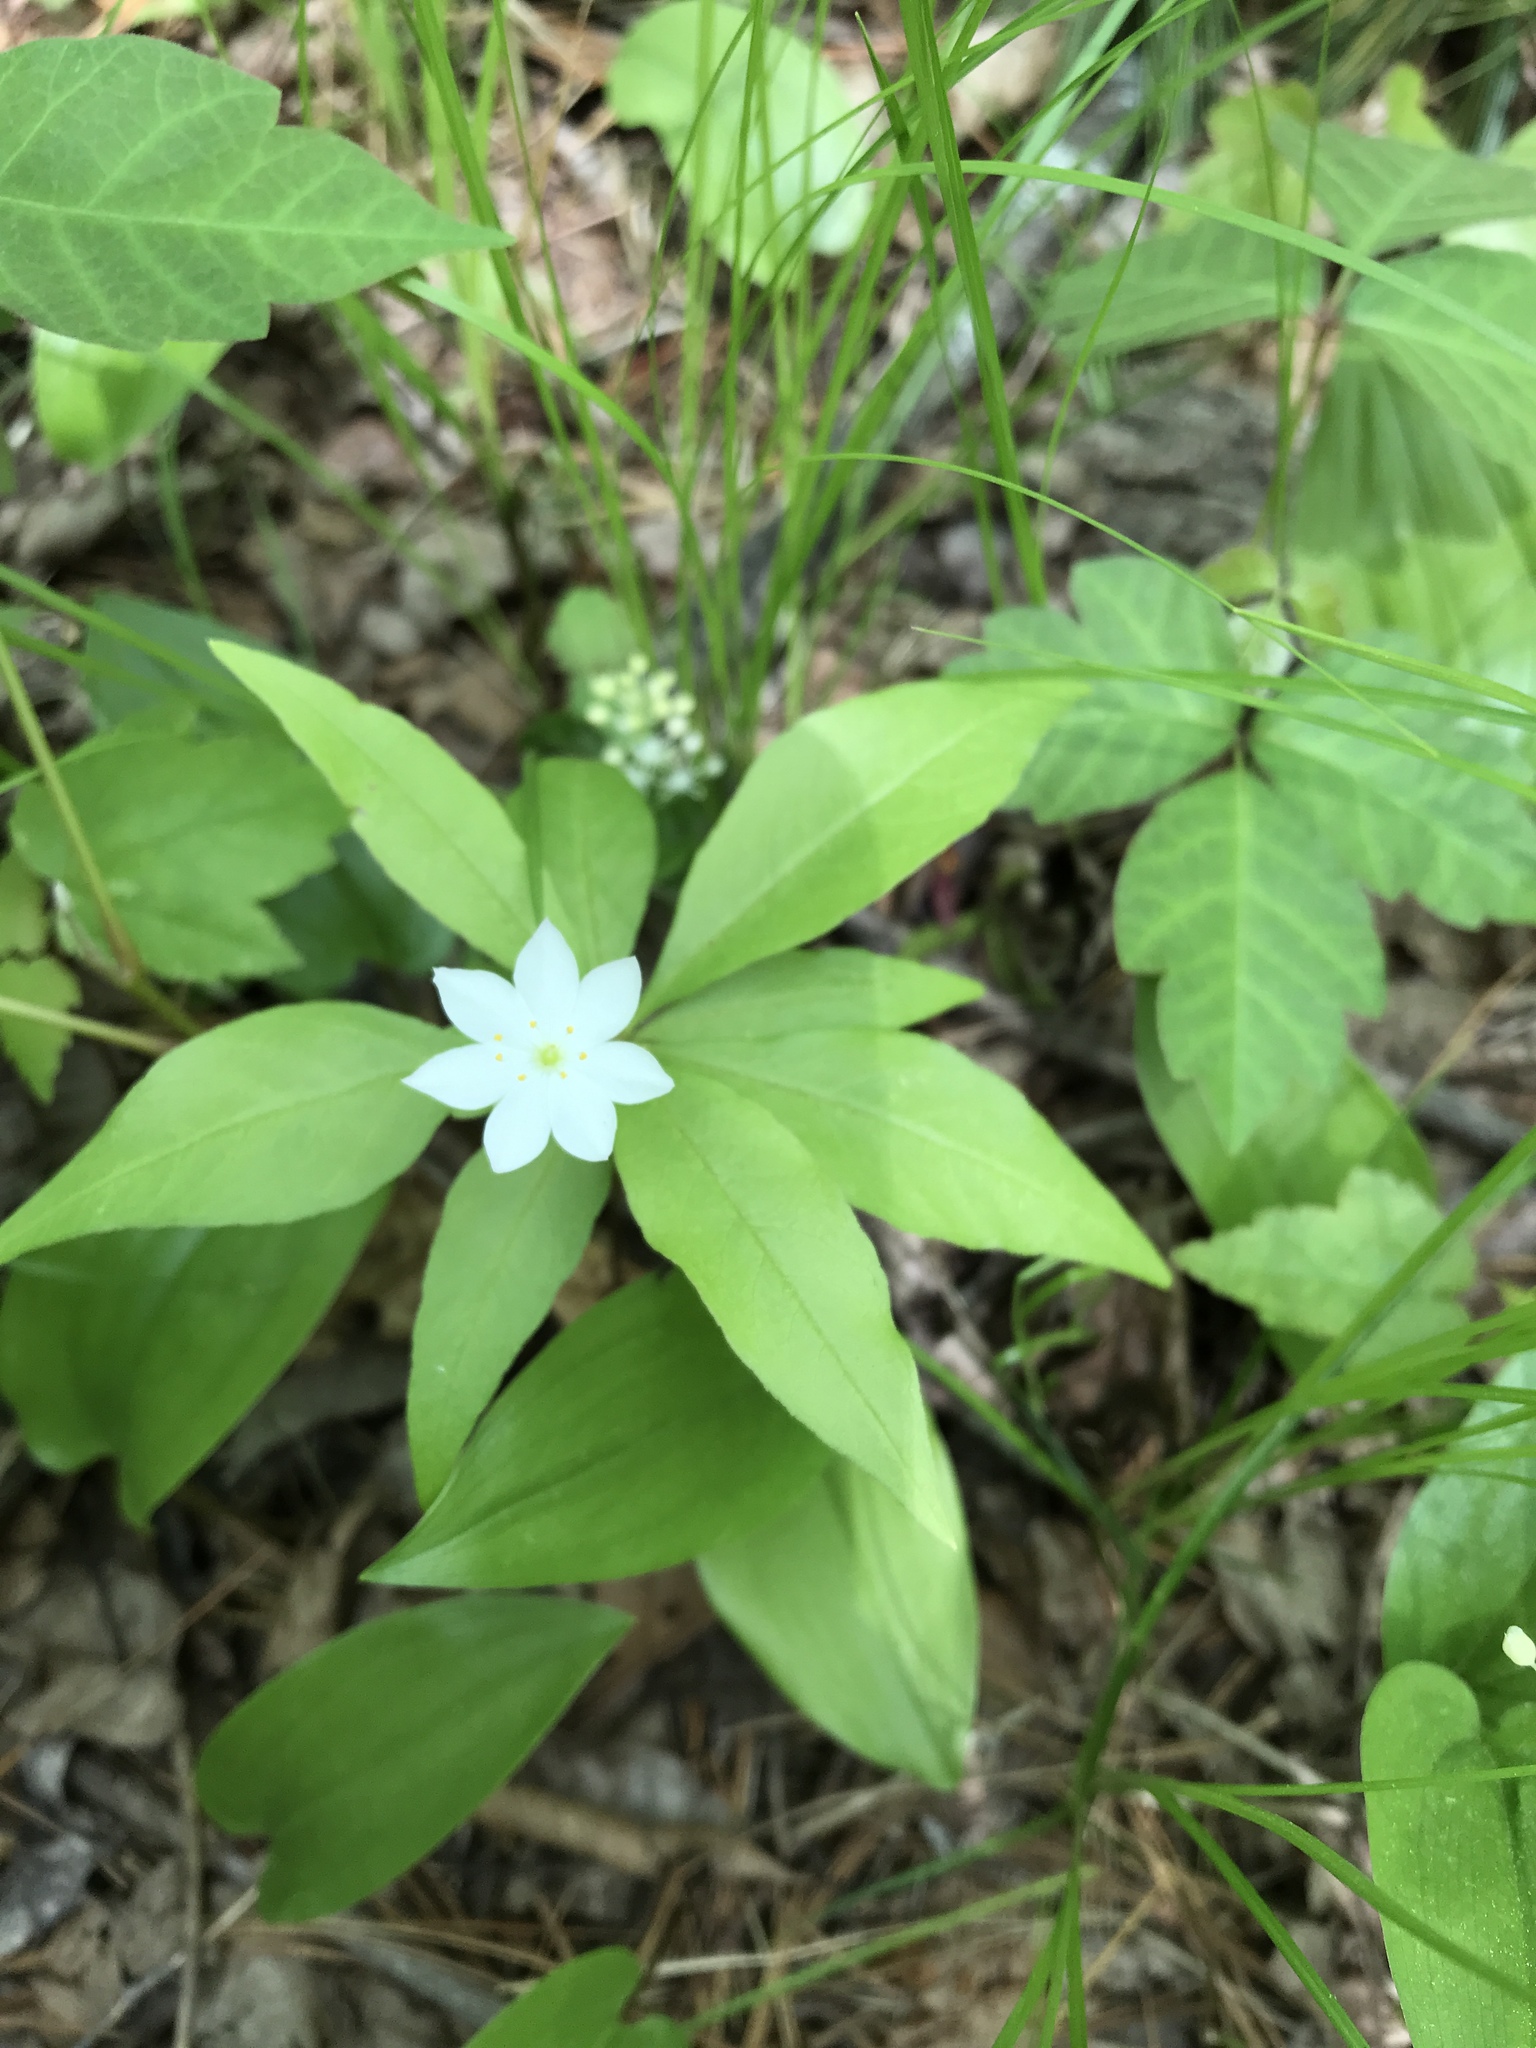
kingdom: Plantae
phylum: Tracheophyta
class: Magnoliopsida
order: Ericales
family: Primulaceae
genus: Lysimachia
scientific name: Lysimachia borealis
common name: American starflower
